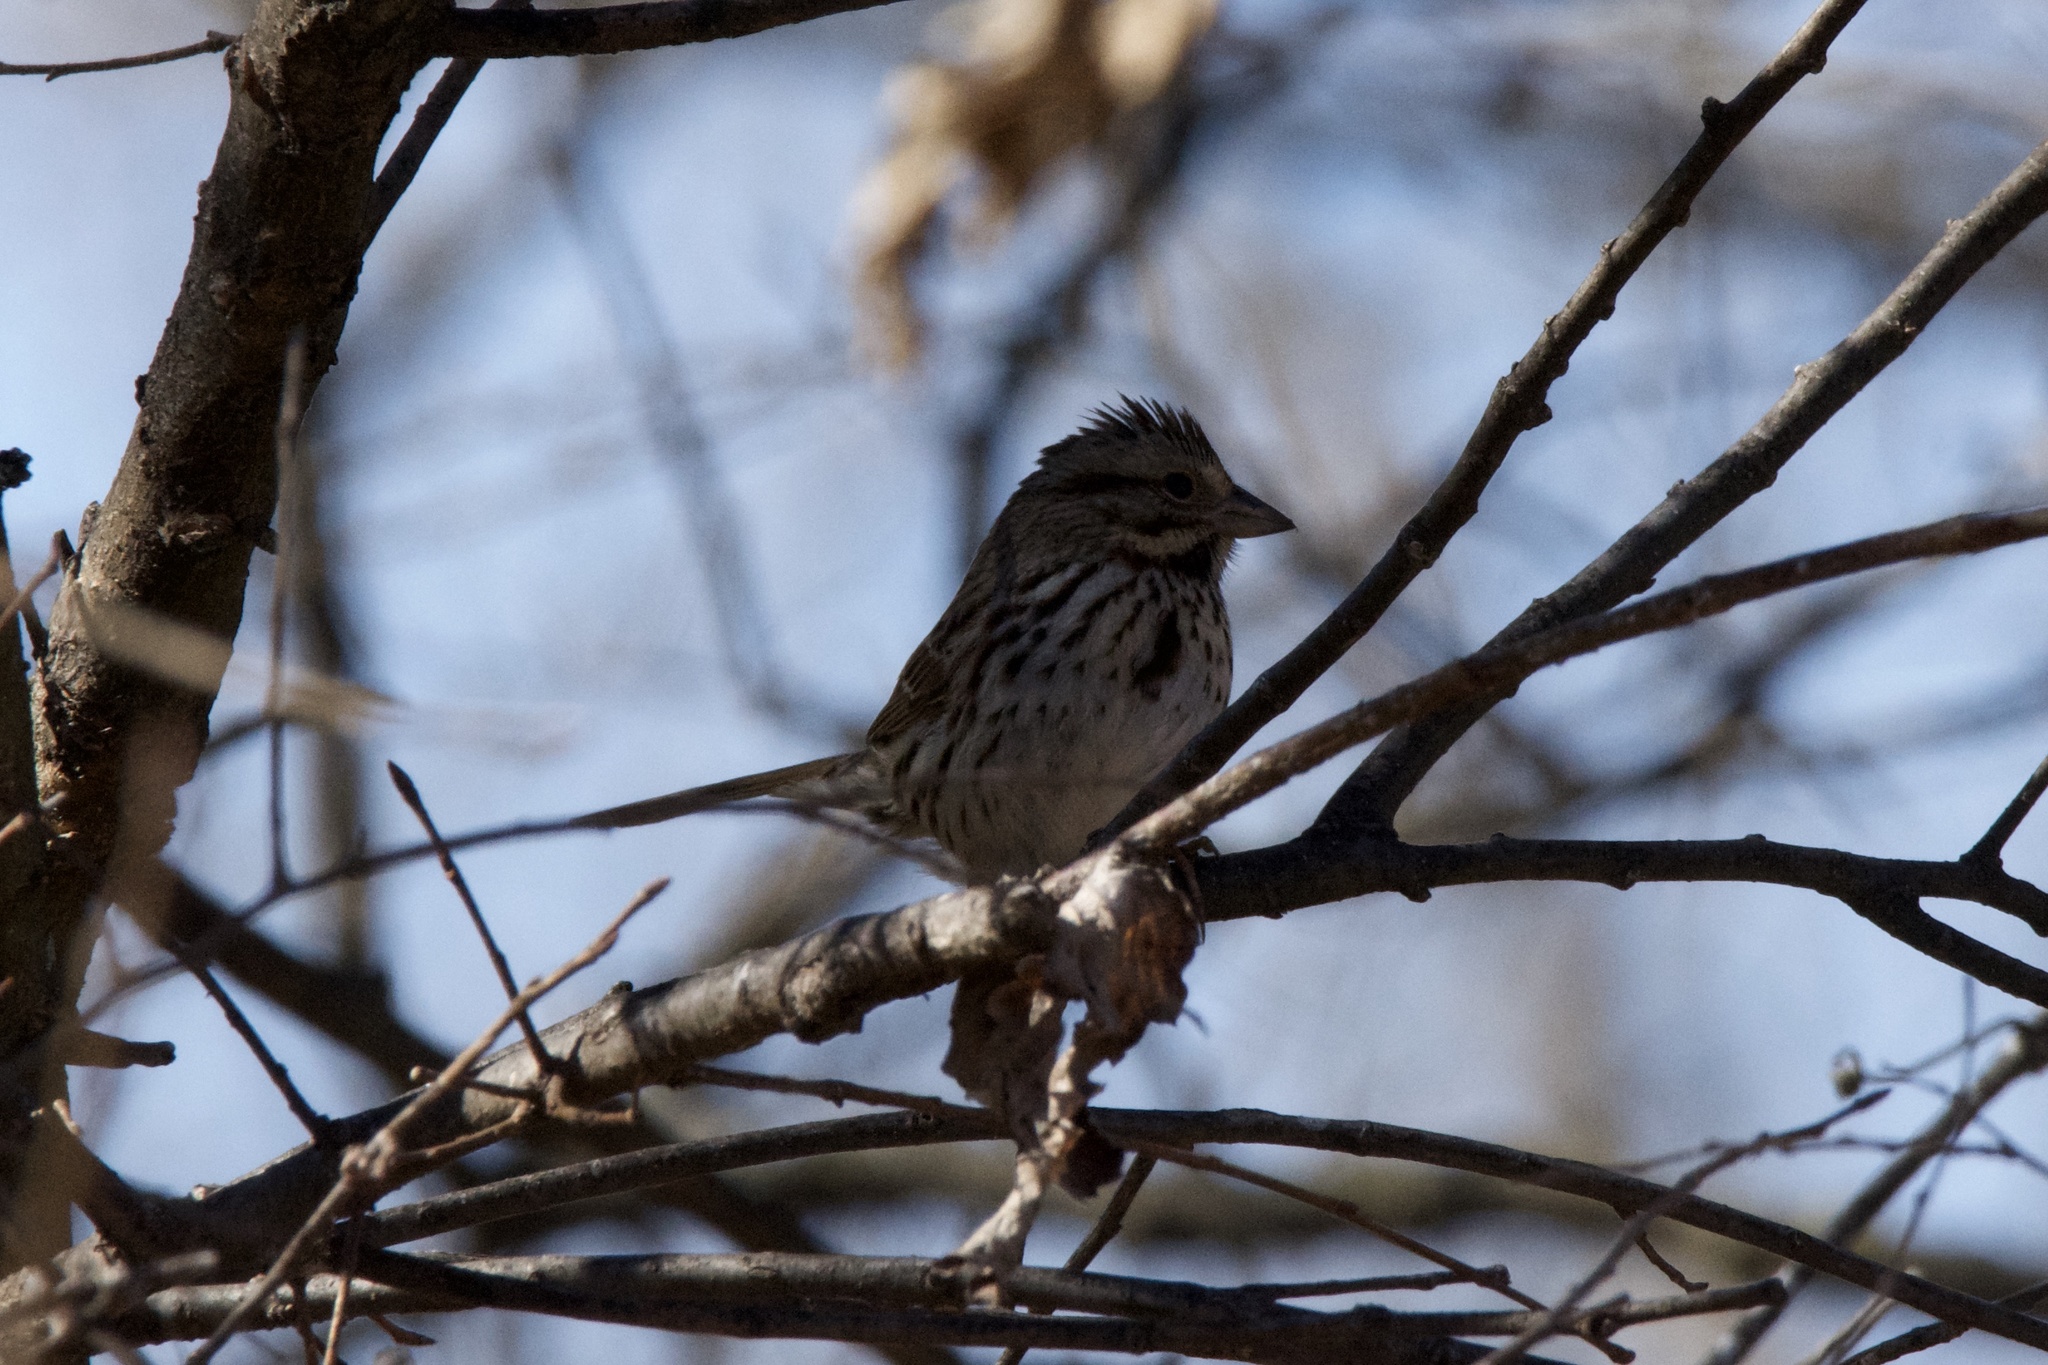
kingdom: Animalia
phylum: Chordata
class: Aves
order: Passeriformes
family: Passerellidae
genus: Melospiza
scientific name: Melospiza melodia
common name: Song sparrow
